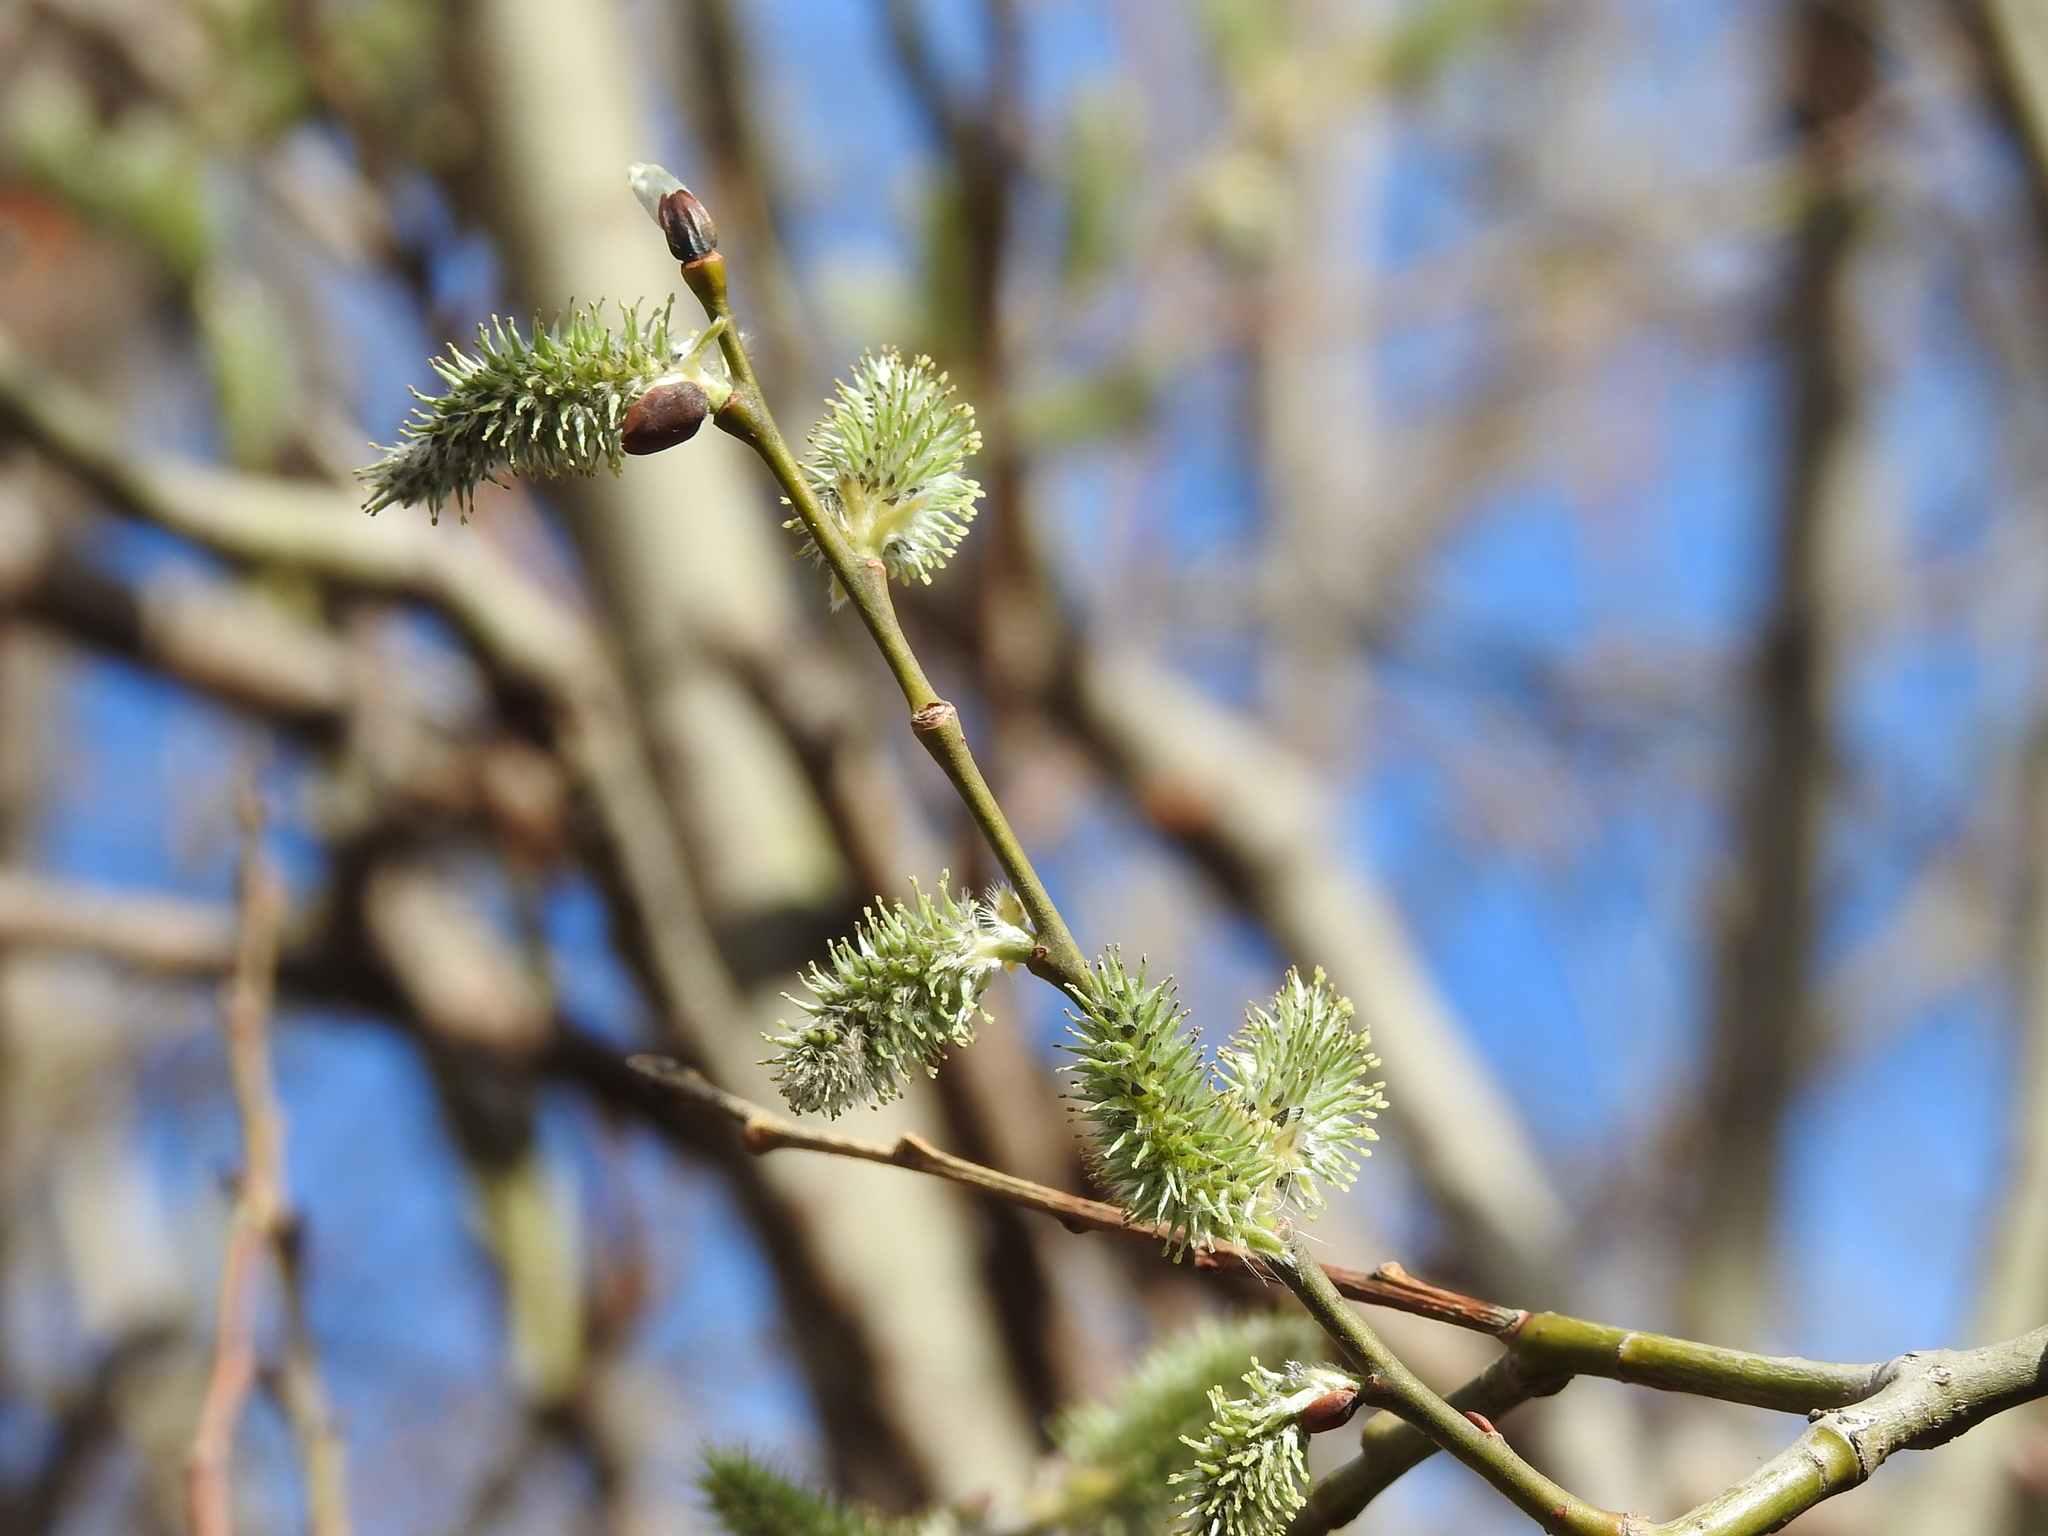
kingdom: Plantae
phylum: Tracheophyta
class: Magnoliopsida
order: Malpighiales
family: Salicaceae
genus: Salix
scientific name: Salix caprea
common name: Goat willow
